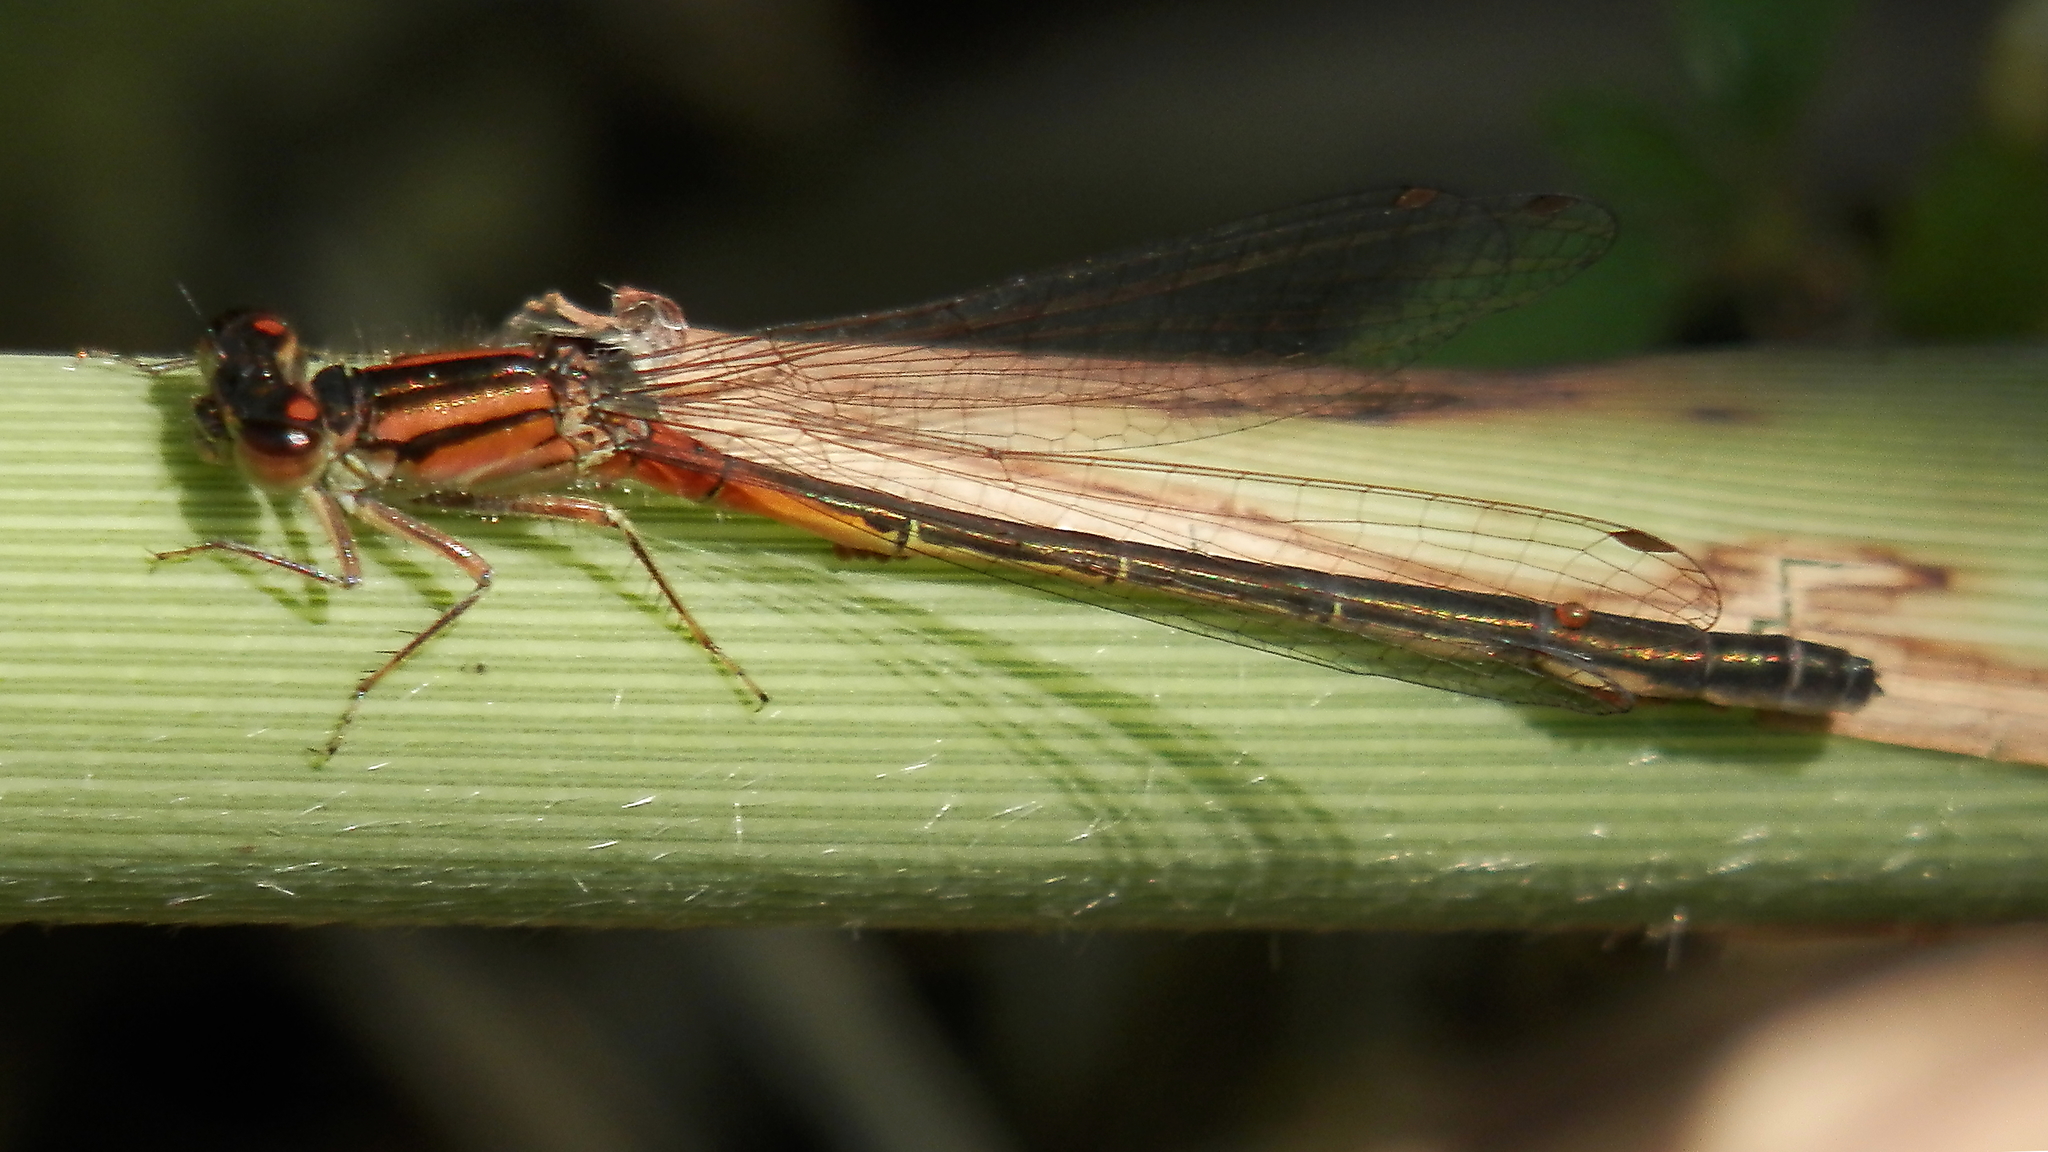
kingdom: Animalia
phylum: Arthropoda
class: Insecta
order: Odonata
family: Coenagrionidae
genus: Ischnura
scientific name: Ischnura verticalis
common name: Eastern forktail
